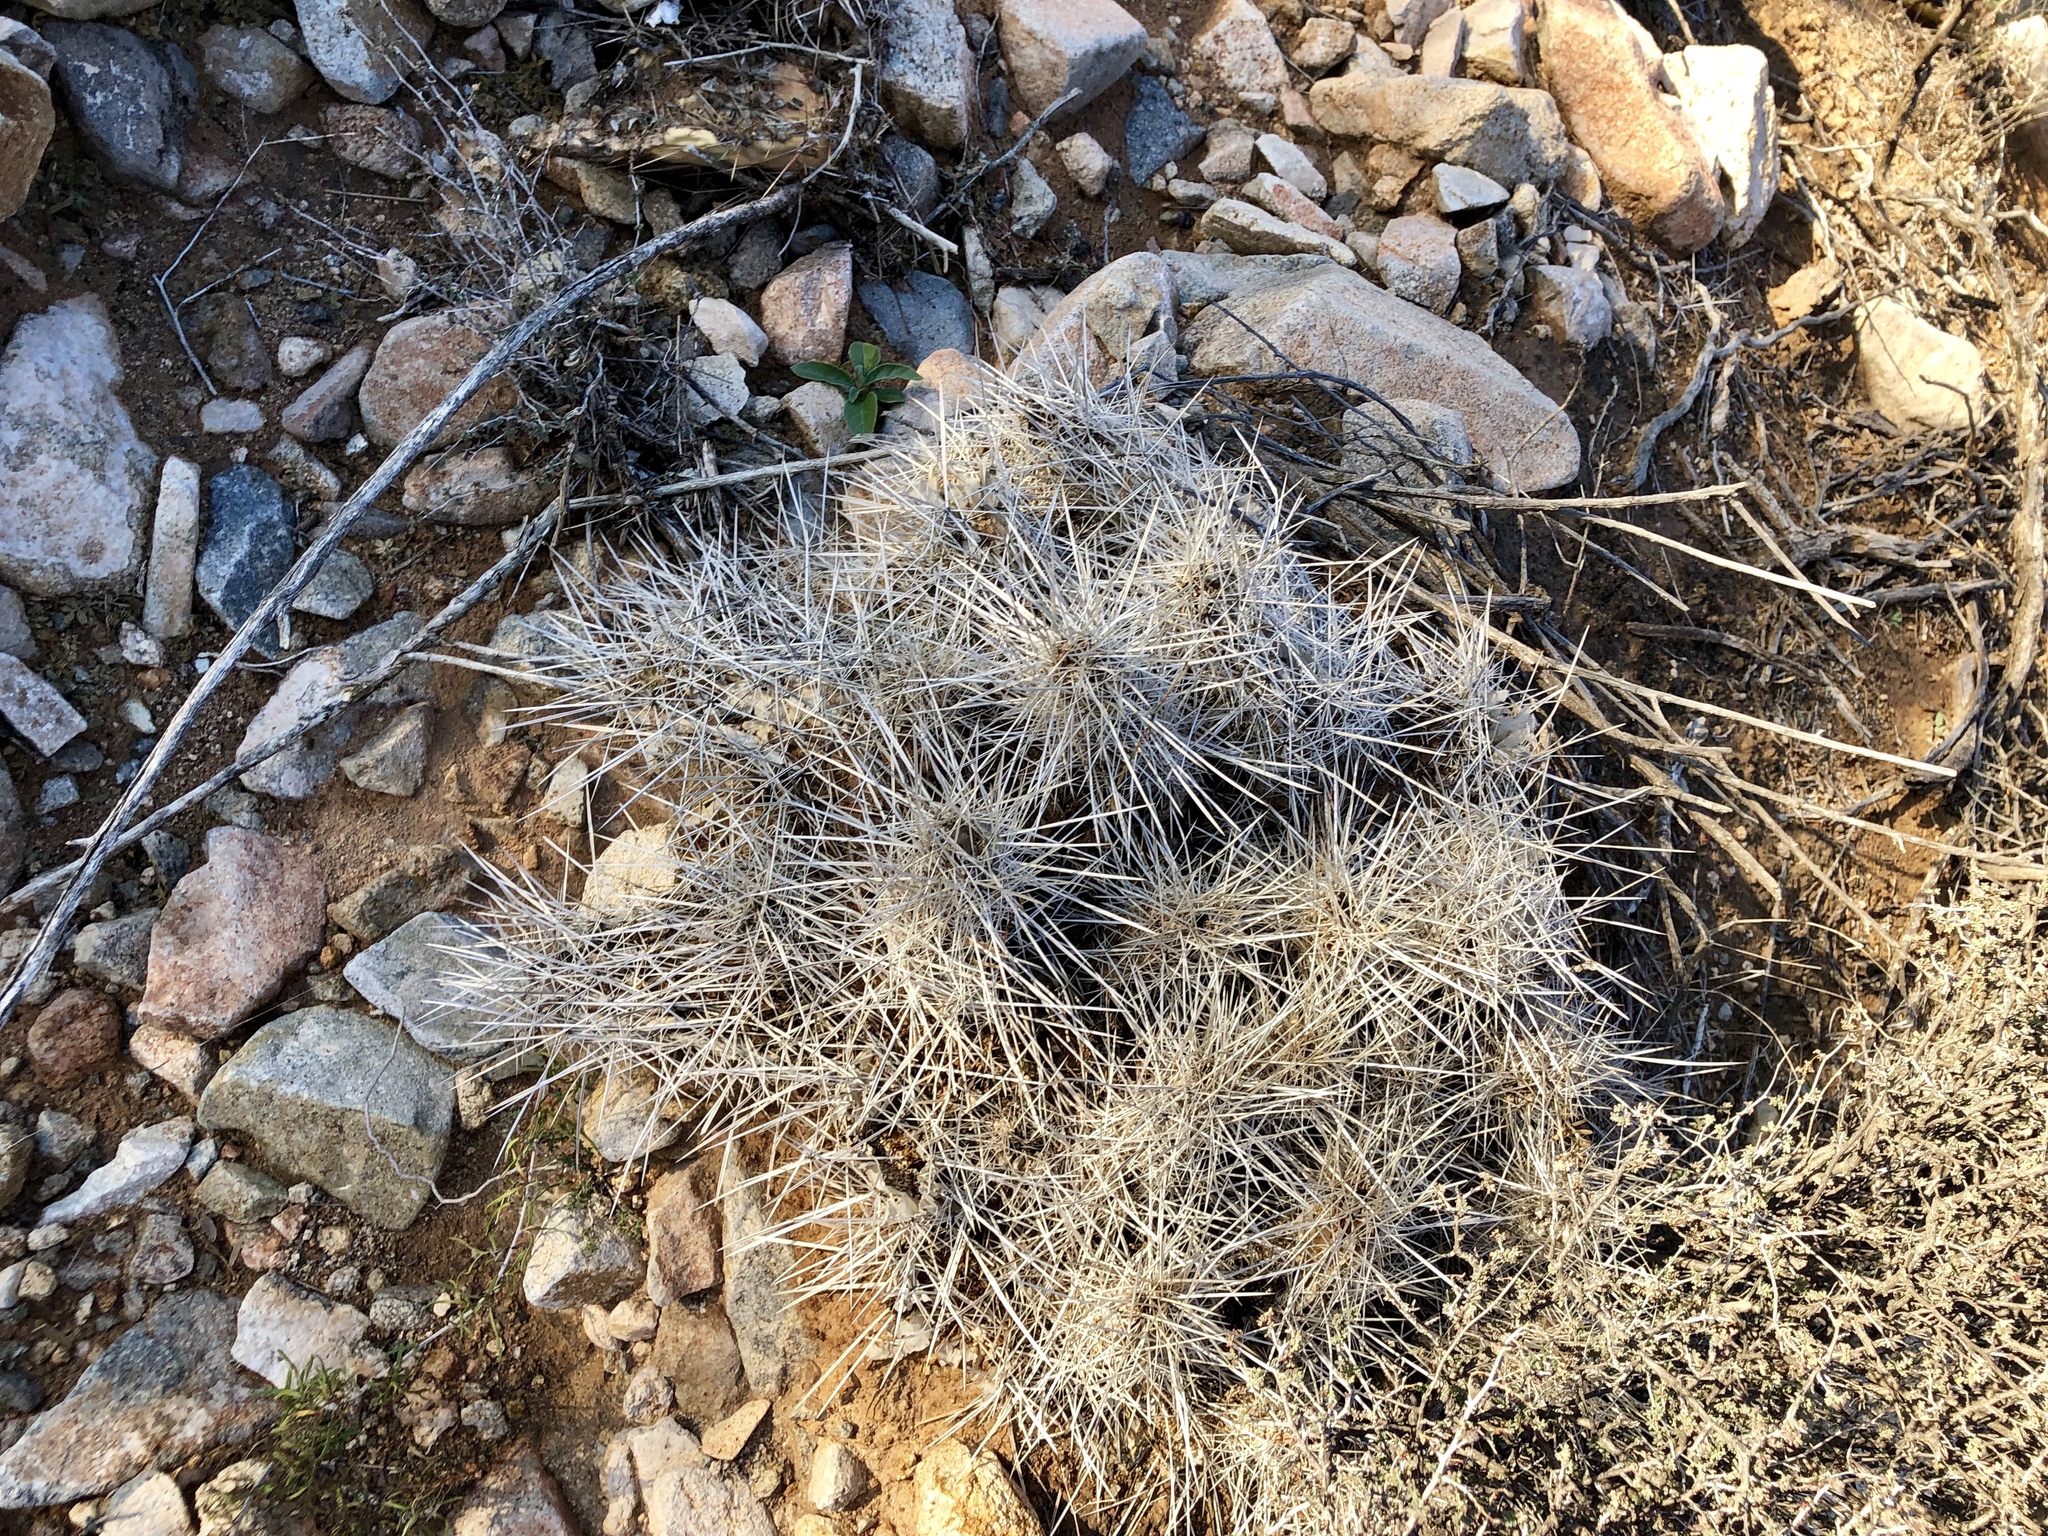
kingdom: Plantae
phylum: Tracheophyta
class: Magnoliopsida
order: Caryophyllales
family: Cactaceae
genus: Echinocereus
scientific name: Echinocereus stramineus
